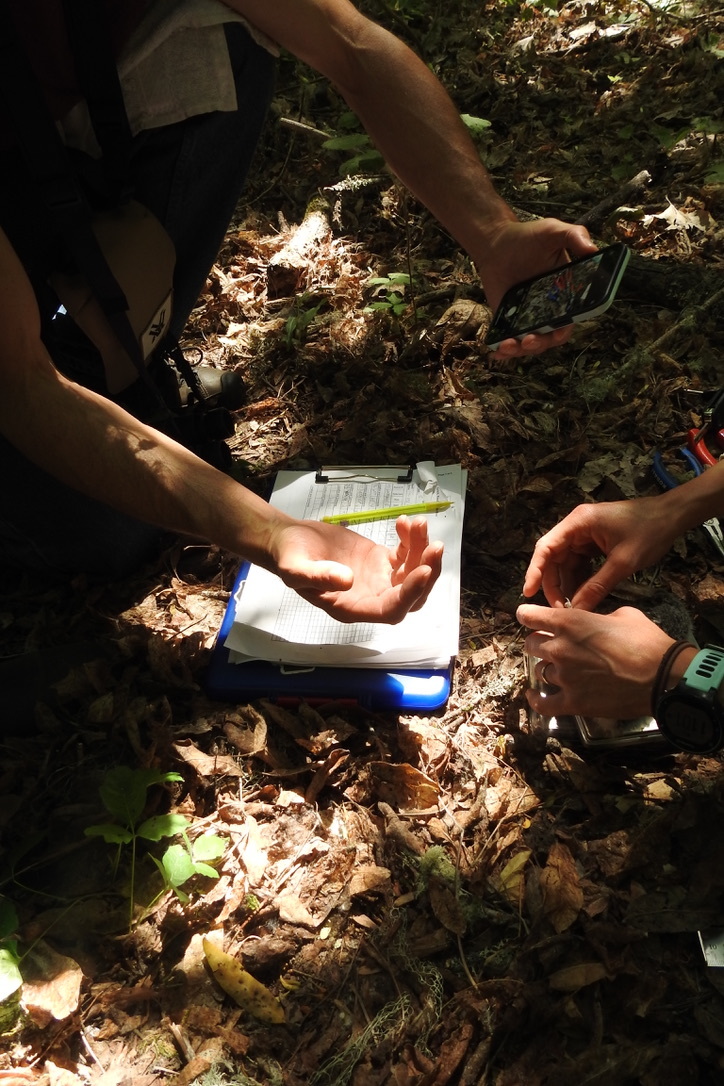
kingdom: Animalia
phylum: Chordata
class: Aves
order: Strigiformes
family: Strigidae
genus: Megascops
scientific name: Megascops kennicottii
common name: Western screech-owl
